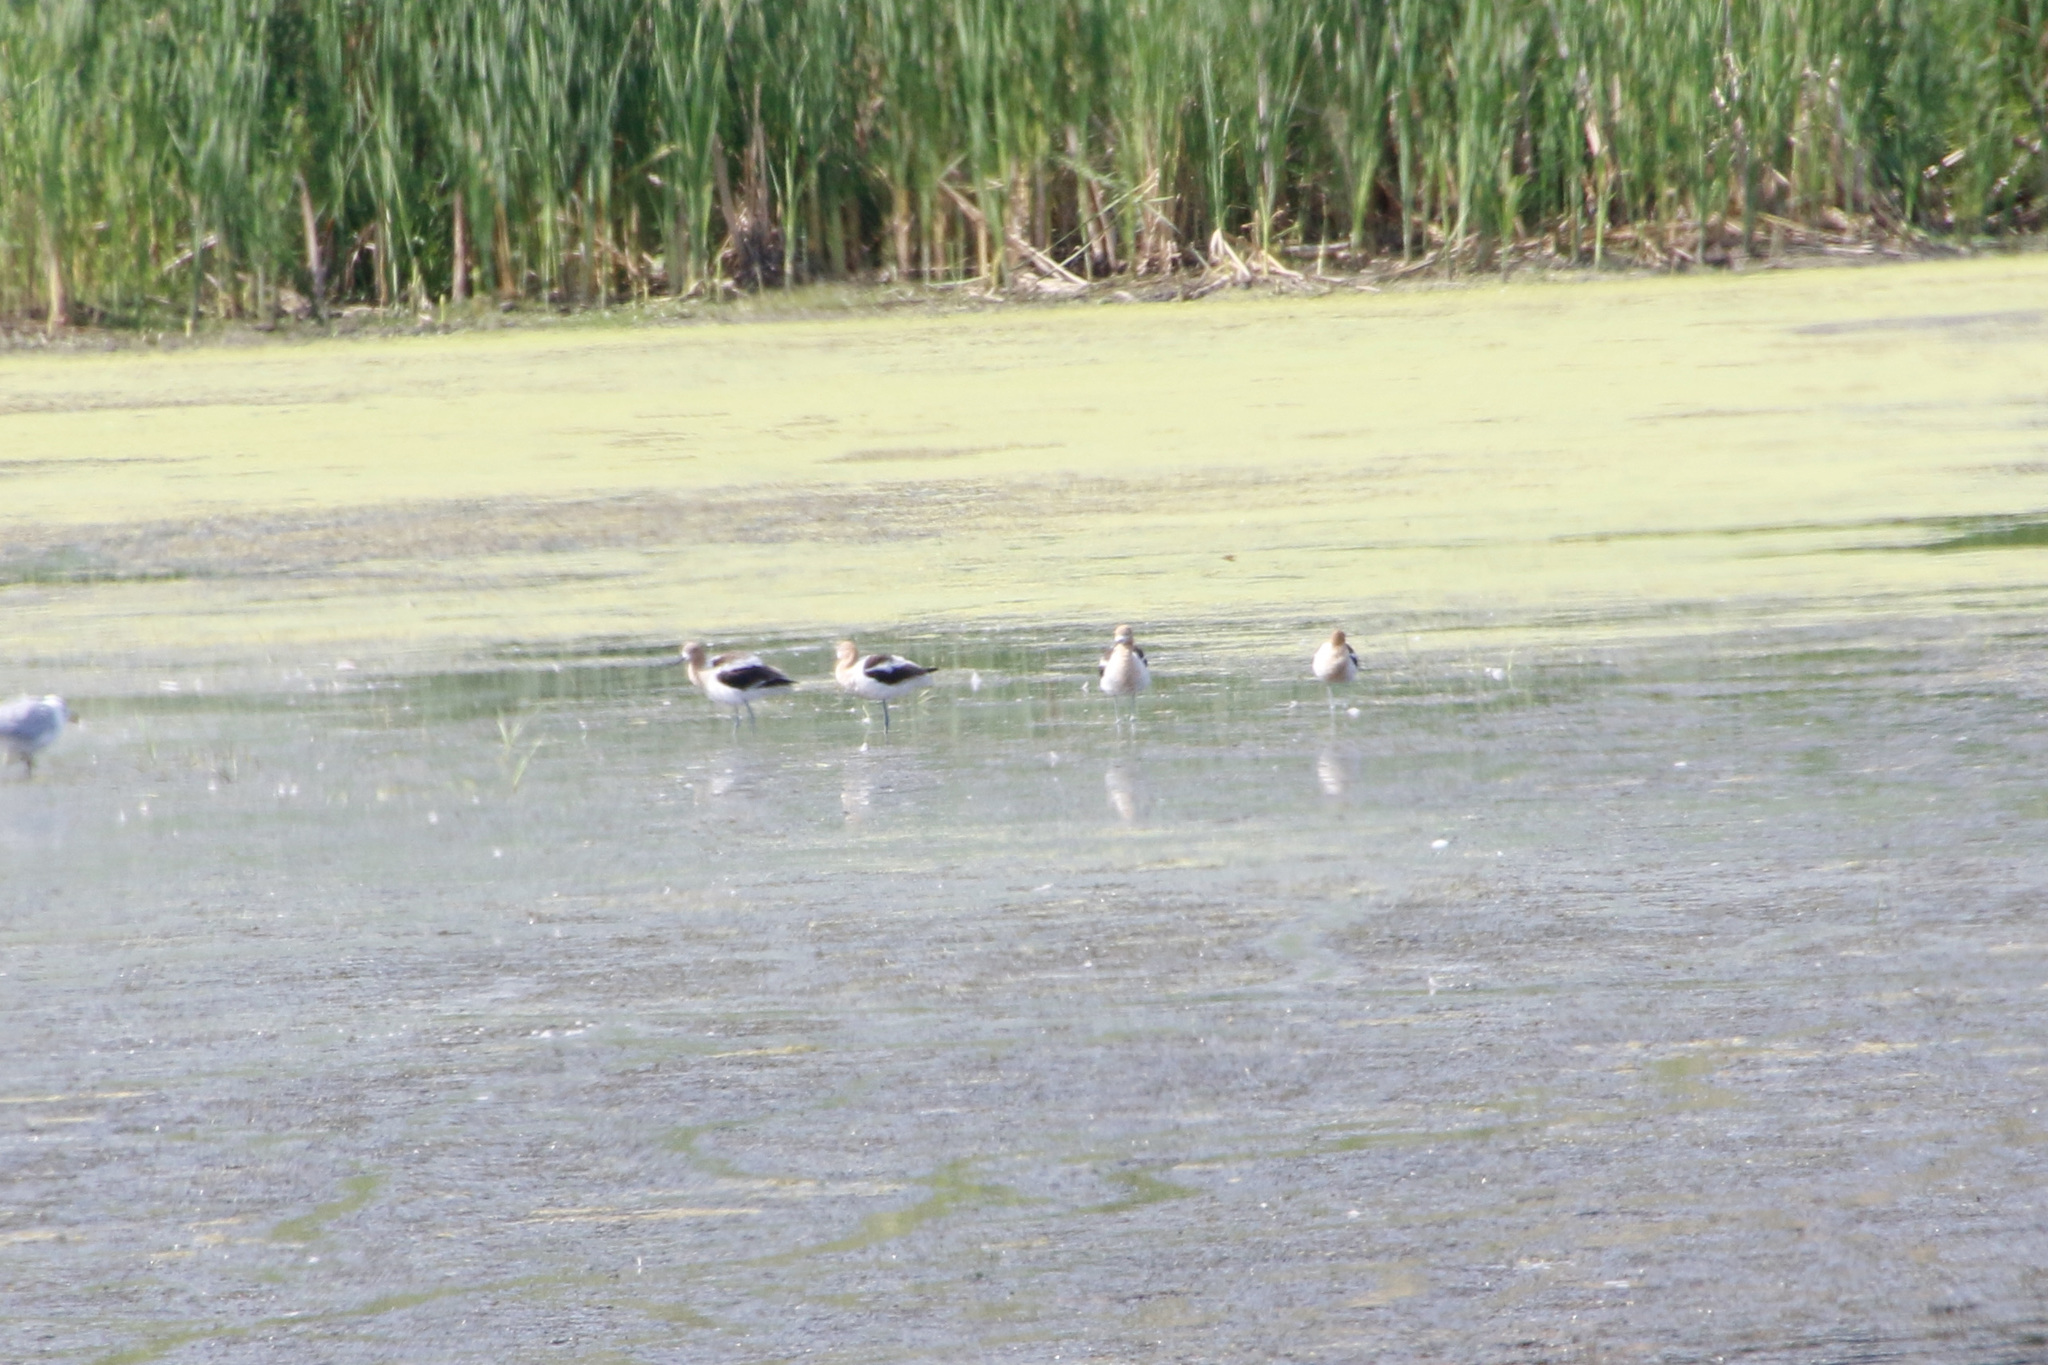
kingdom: Animalia
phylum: Chordata
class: Aves
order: Charadriiformes
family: Recurvirostridae
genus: Recurvirostra
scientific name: Recurvirostra americana
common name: American avocet
